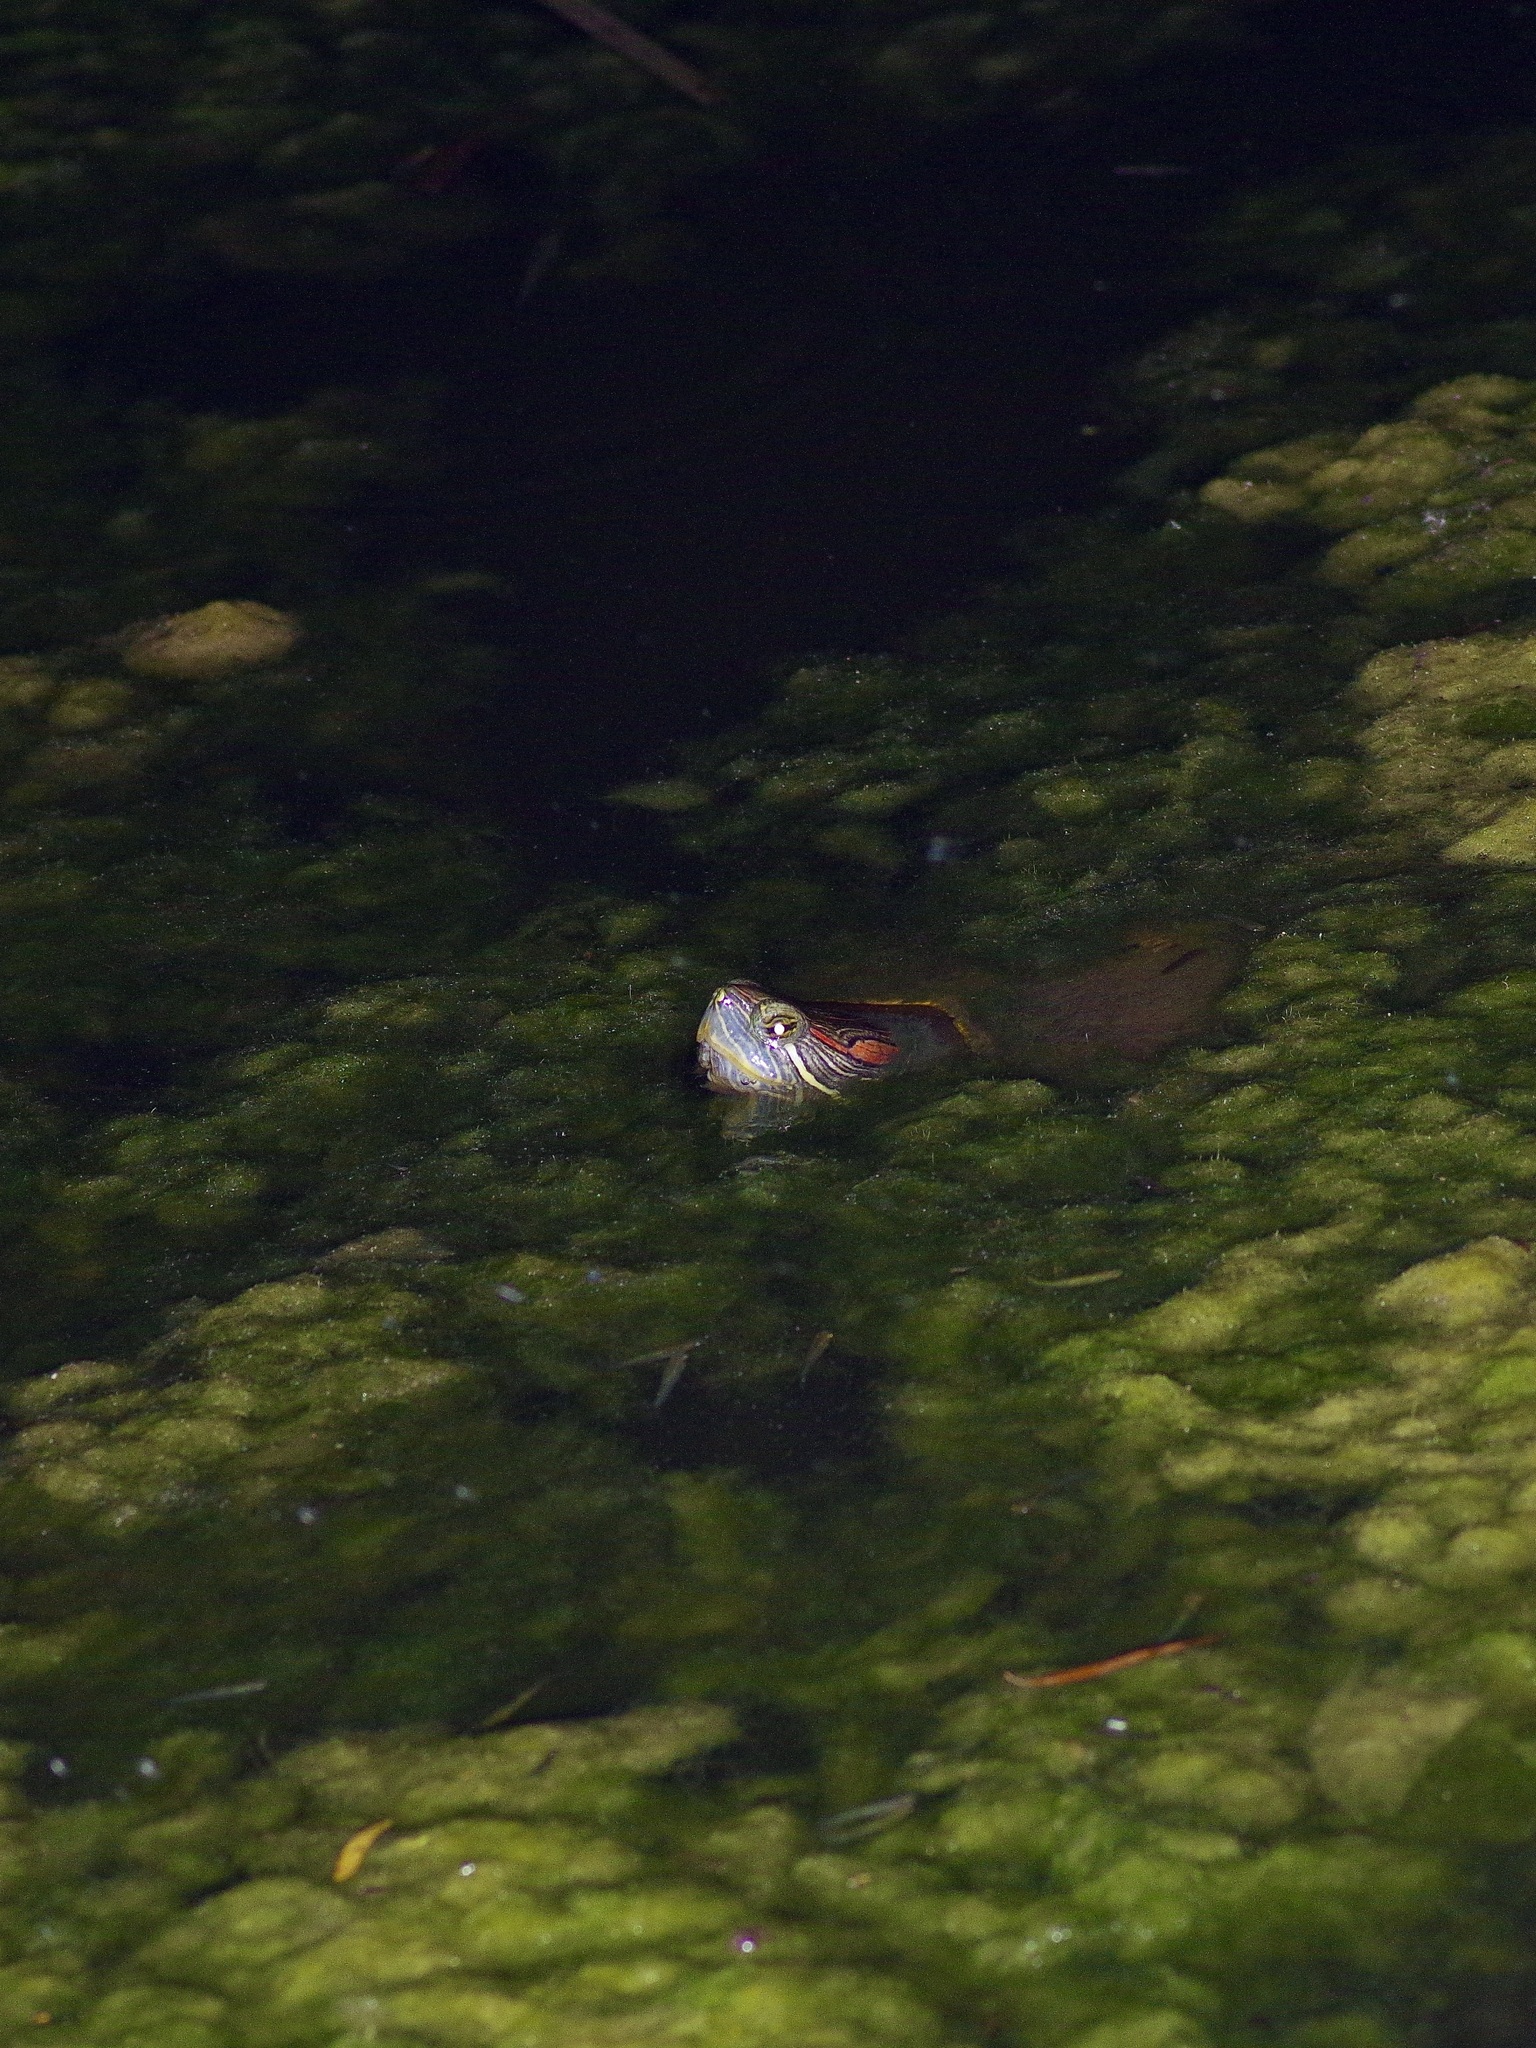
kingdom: Animalia
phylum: Chordata
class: Testudines
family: Emydidae
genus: Trachemys
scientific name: Trachemys scripta
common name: Slider
